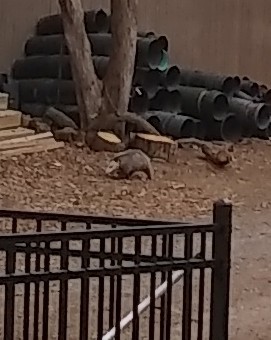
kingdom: Animalia
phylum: Chordata
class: Mammalia
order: Didelphimorphia
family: Didelphidae
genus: Didelphis
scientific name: Didelphis virginiana
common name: Virginia opossum
